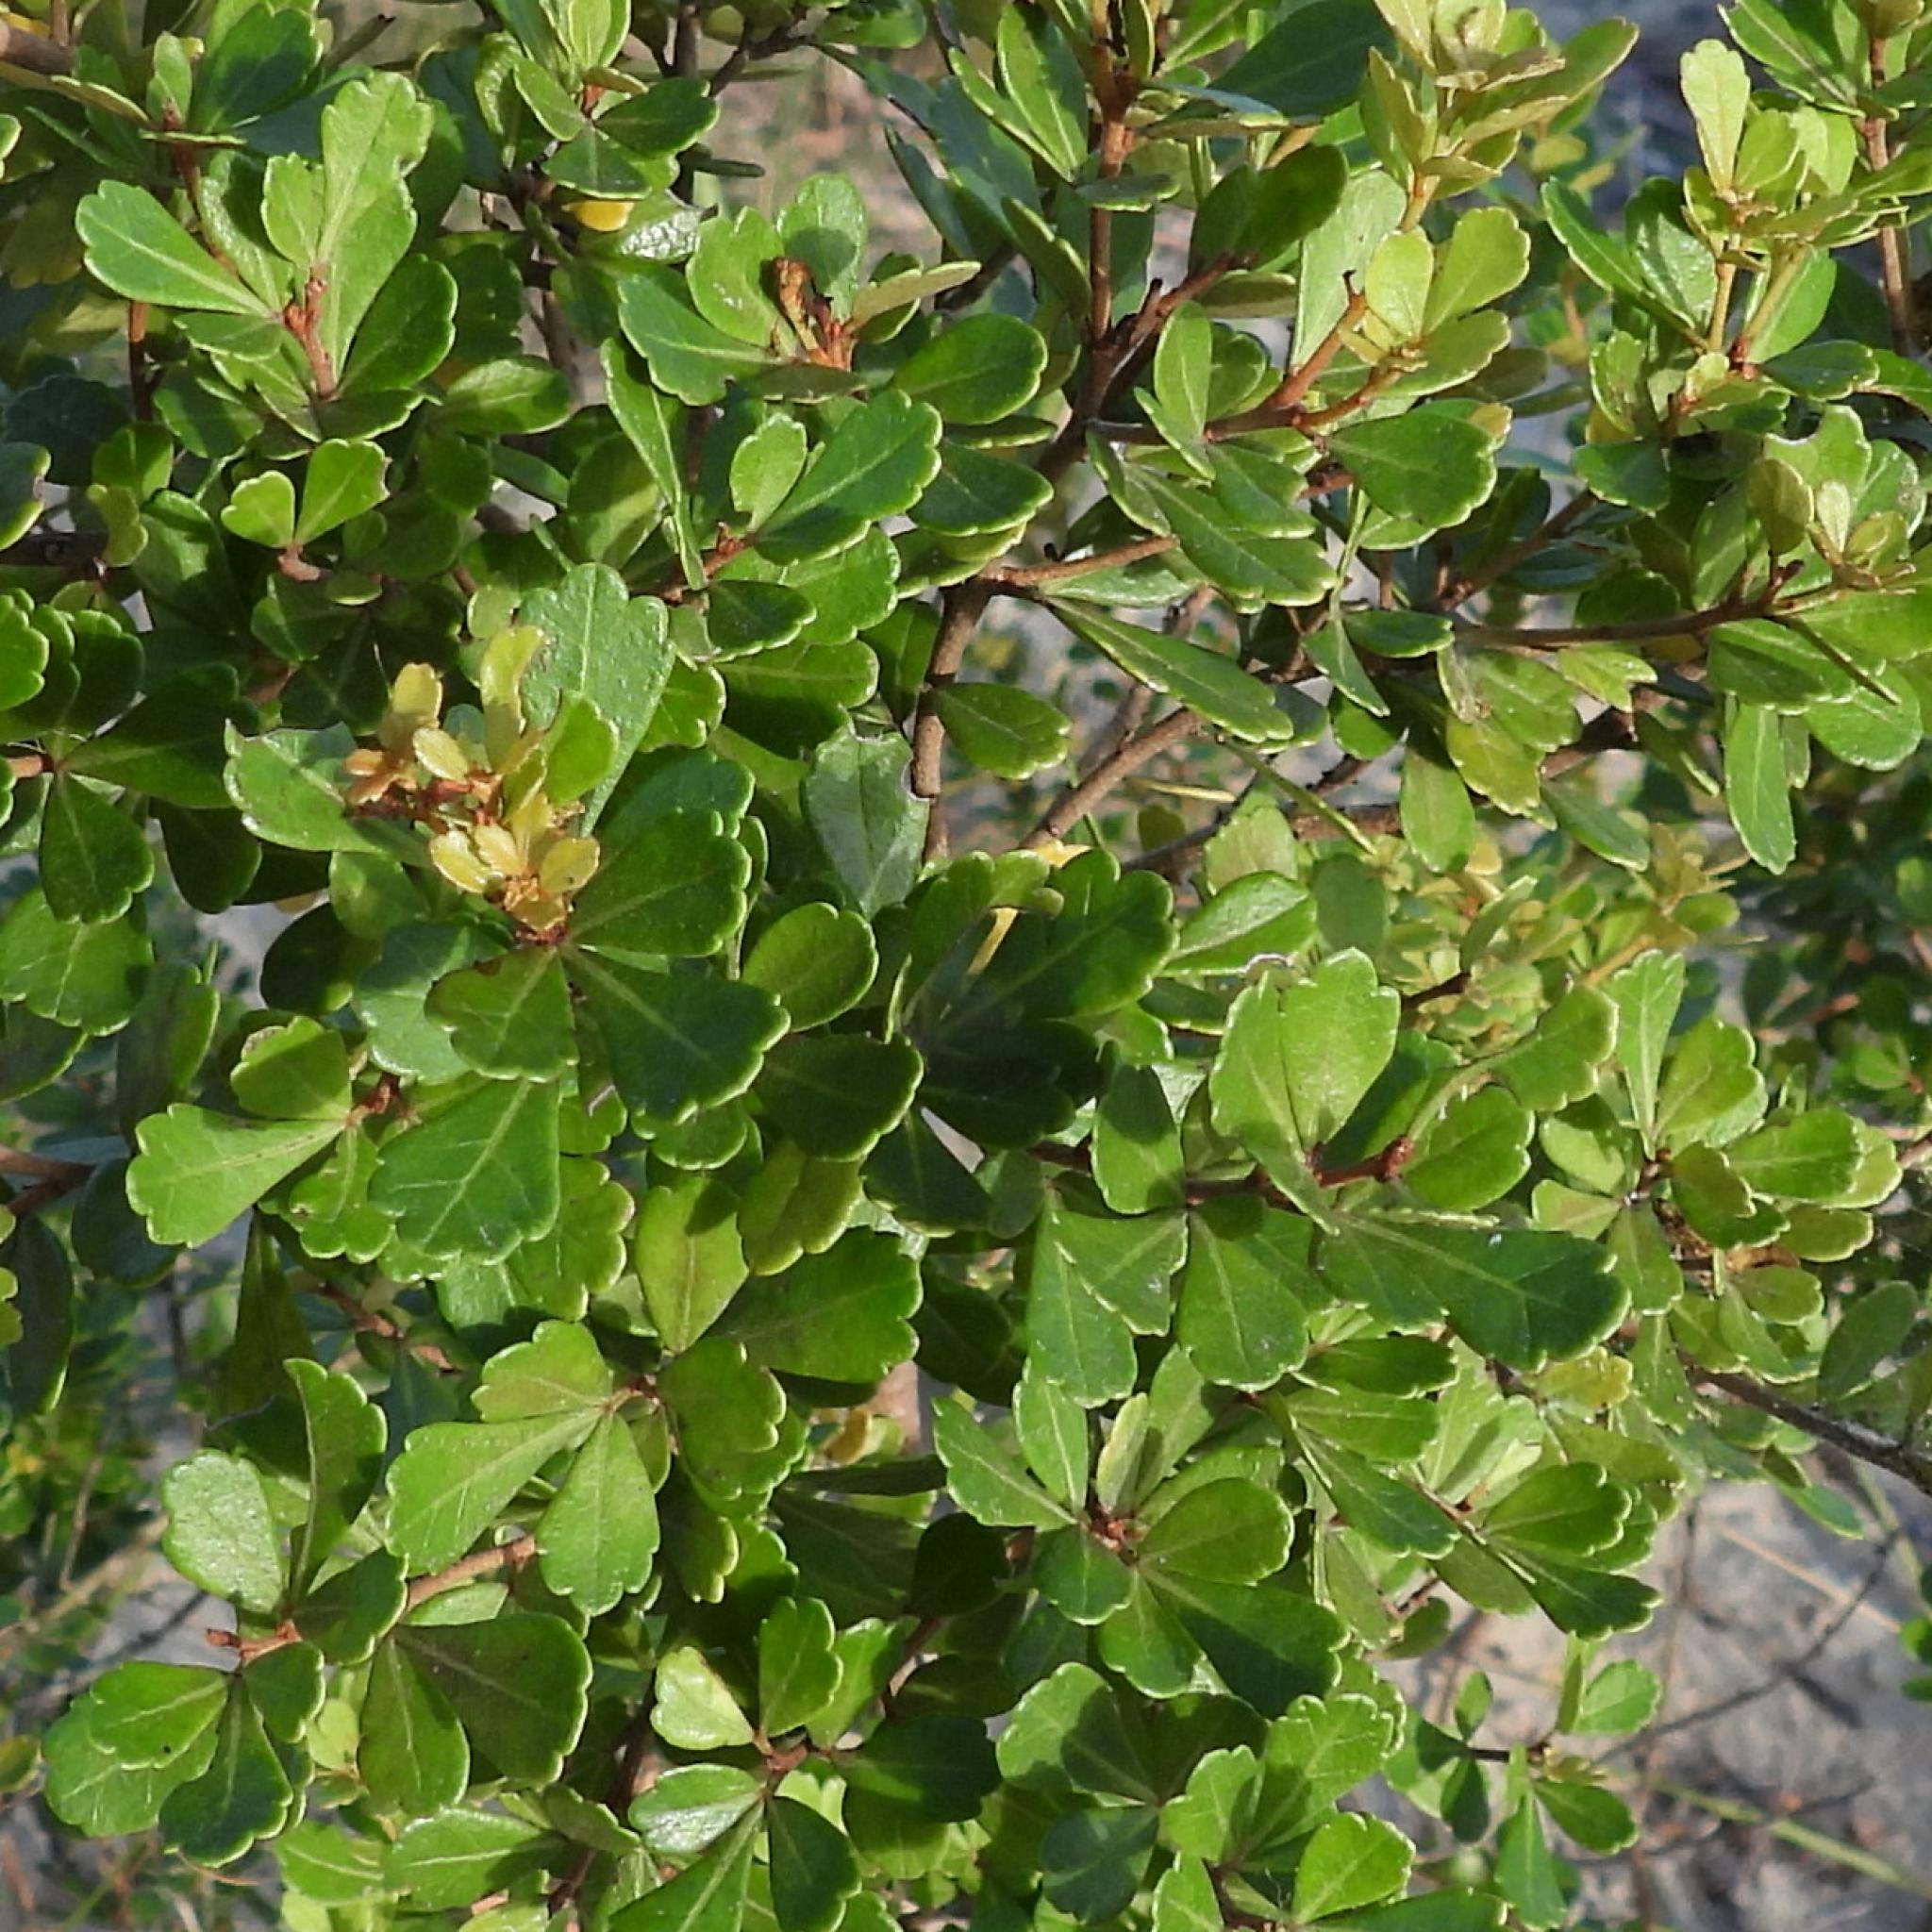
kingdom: Plantae
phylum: Tracheophyta
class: Magnoliopsida
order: Sapindales
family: Anacardiaceae
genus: Searsia
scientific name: Searsia crenata
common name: Crowberry
